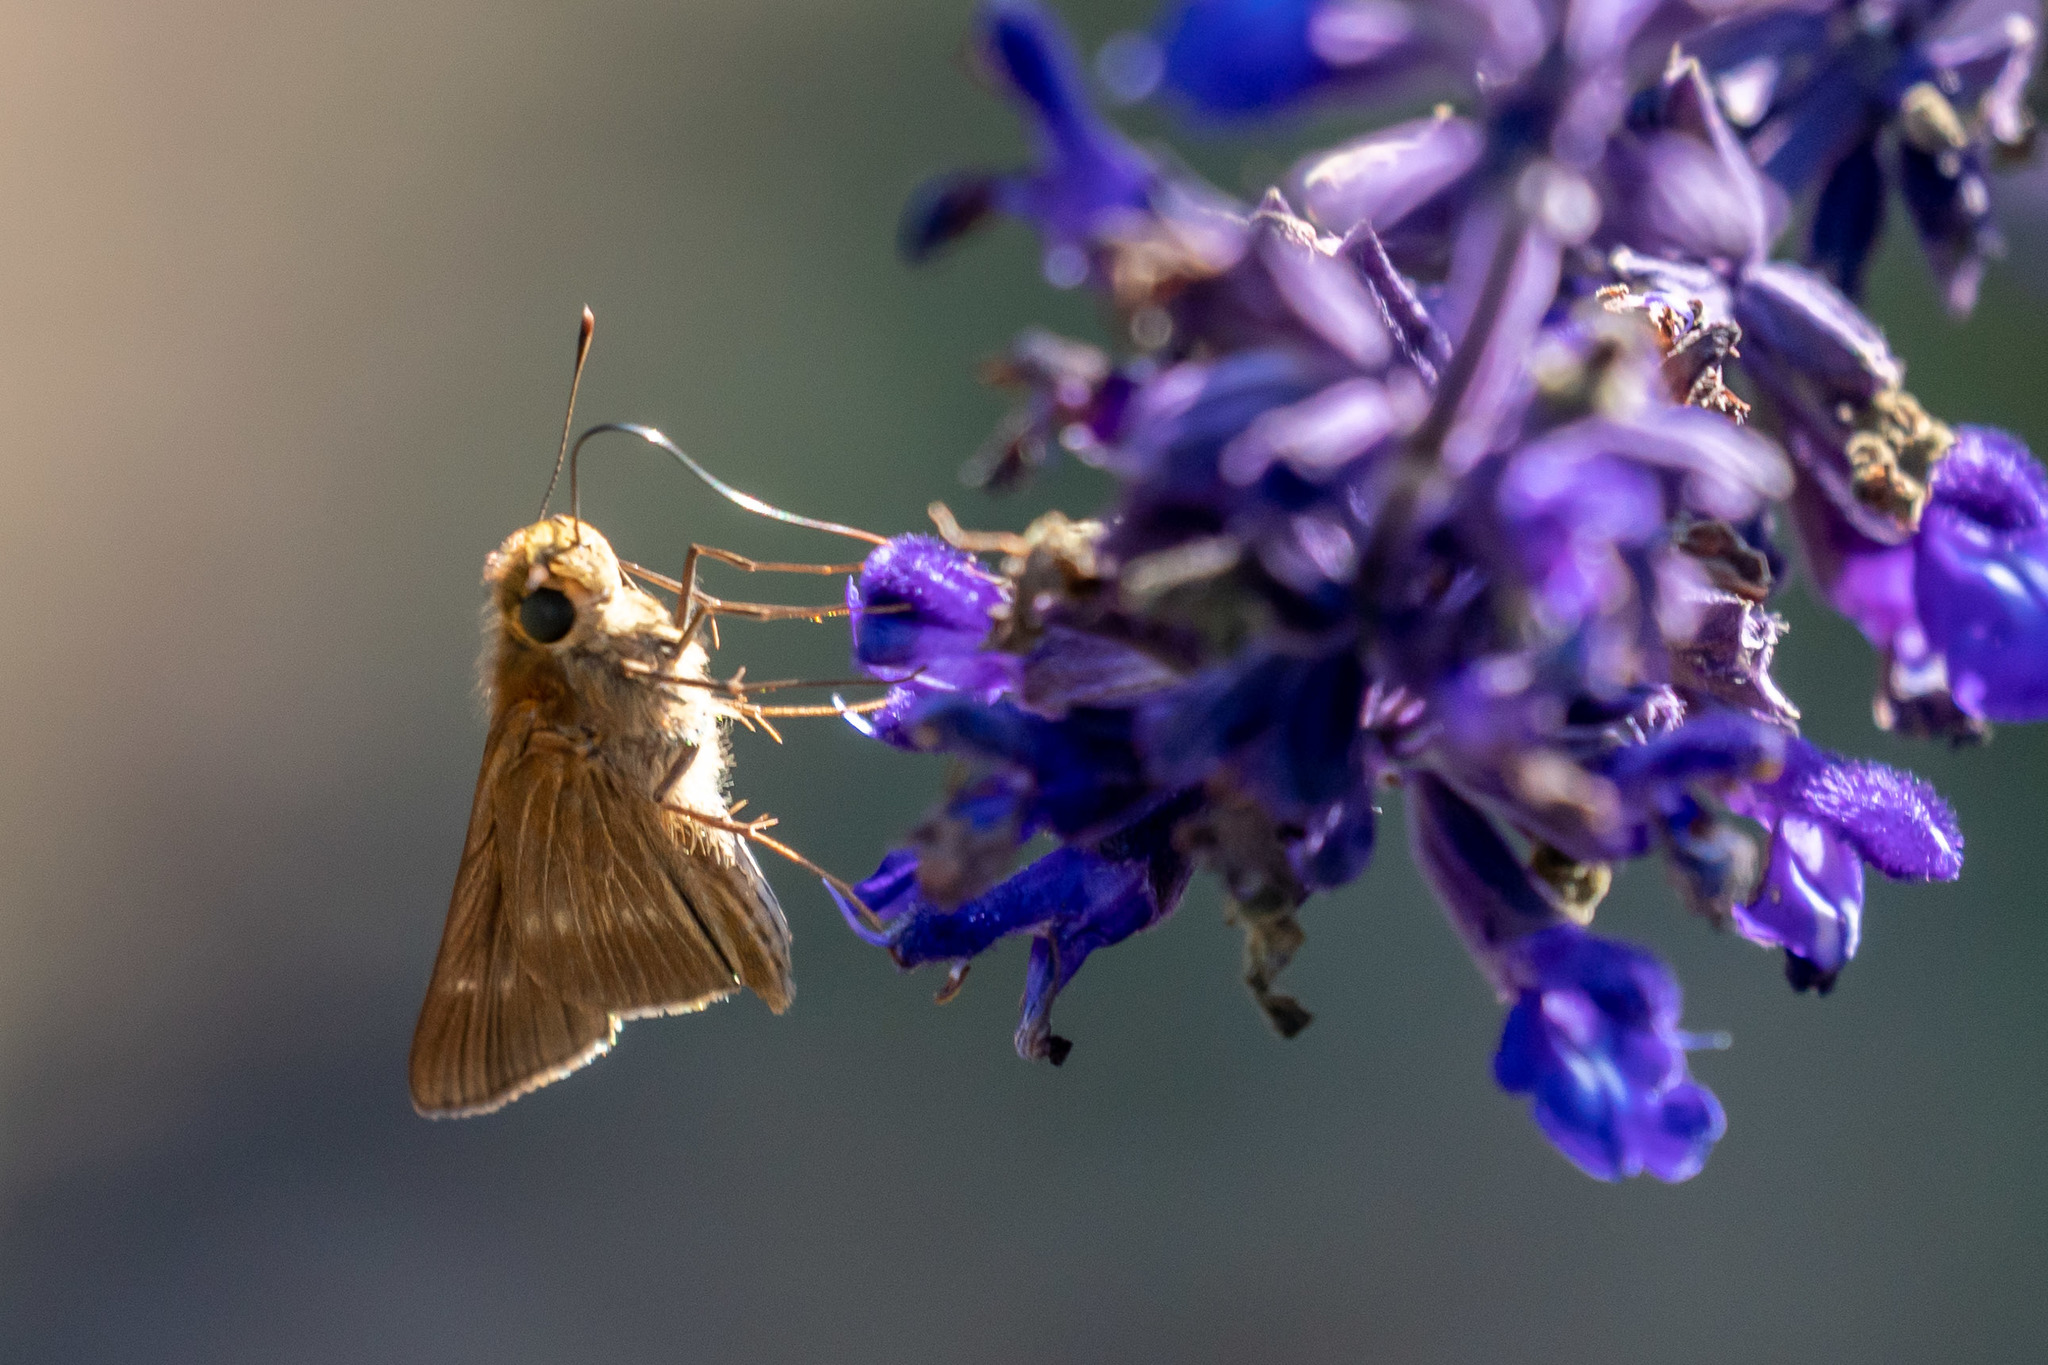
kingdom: Animalia
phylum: Arthropoda
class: Insecta
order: Lepidoptera
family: Hesperiidae
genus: Panoquina
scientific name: Panoquina ocola
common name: Ocola skipper
